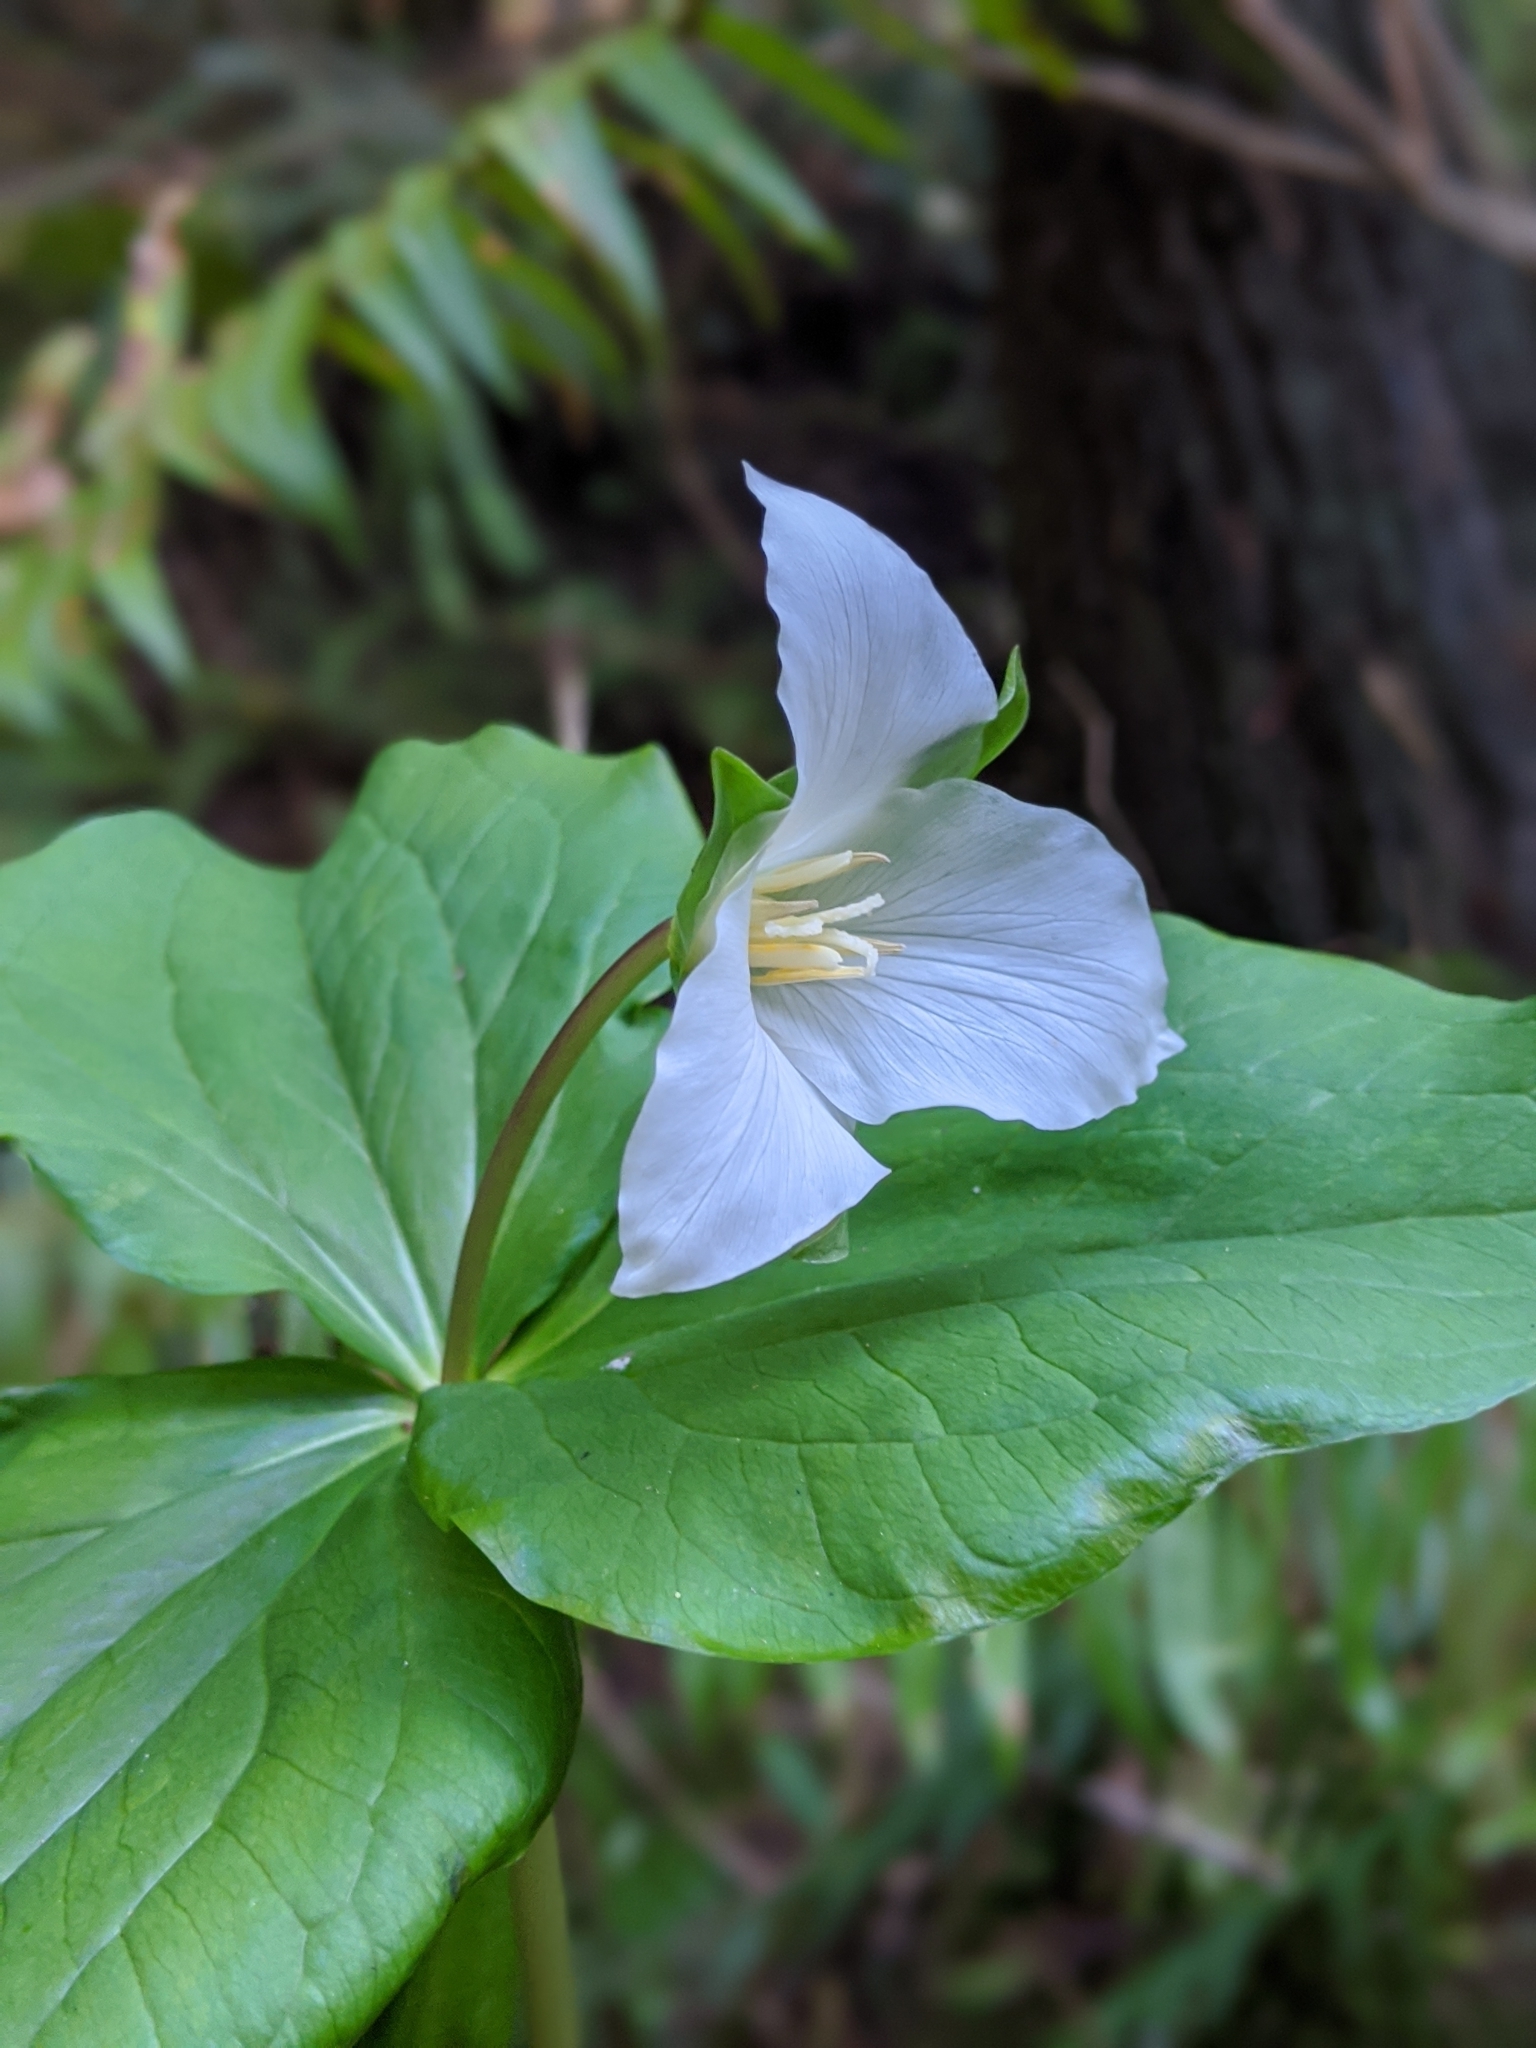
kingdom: Plantae
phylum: Tracheophyta
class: Liliopsida
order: Liliales
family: Melanthiaceae
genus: Trillium
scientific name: Trillium ovatum
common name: Pacific trillium
